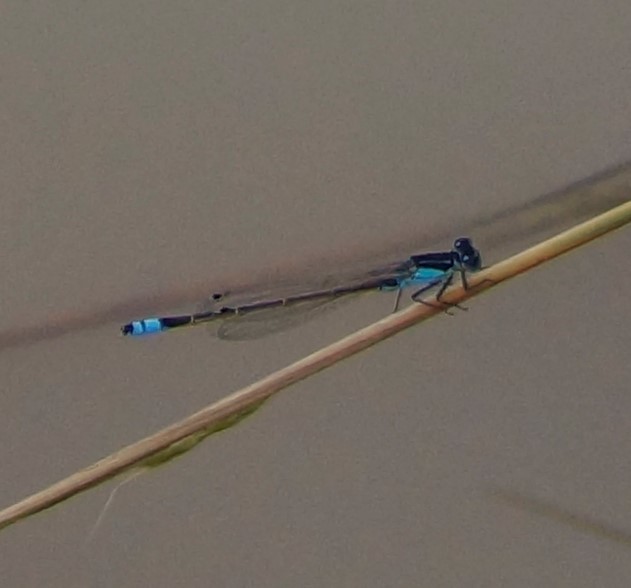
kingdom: Animalia
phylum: Arthropoda
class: Insecta
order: Odonata
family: Coenagrionidae
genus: Ischnura
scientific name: Ischnura heterosticta
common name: Common bluetail
